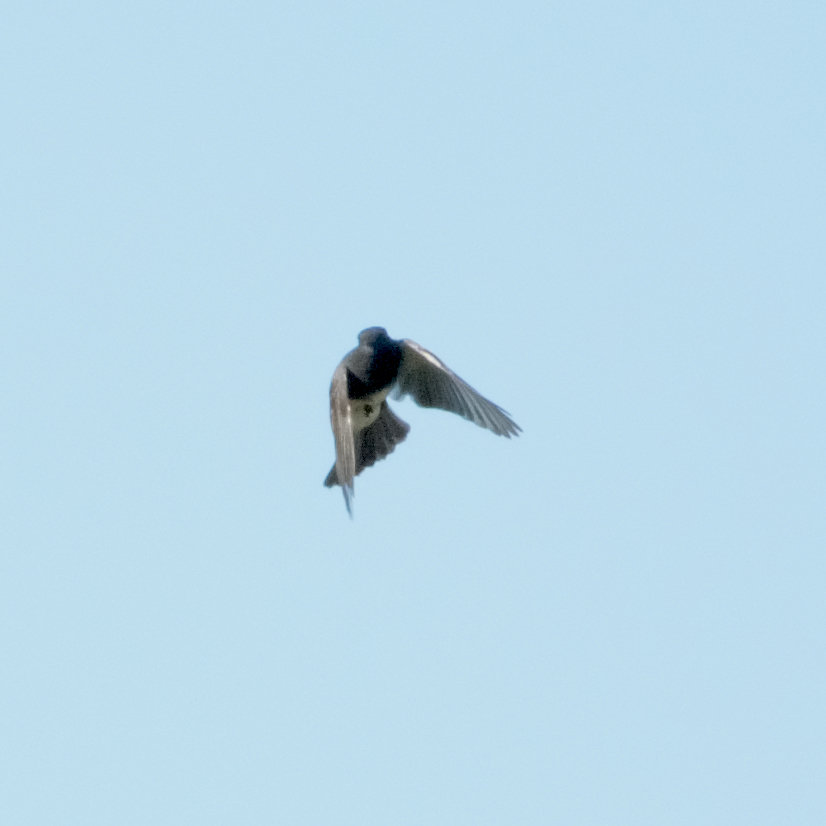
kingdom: Animalia
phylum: Chordata
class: Aves
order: Passeriformes
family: Tyrannidae
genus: Sayornis
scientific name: Sayornis nigricans
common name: Black phoebe
